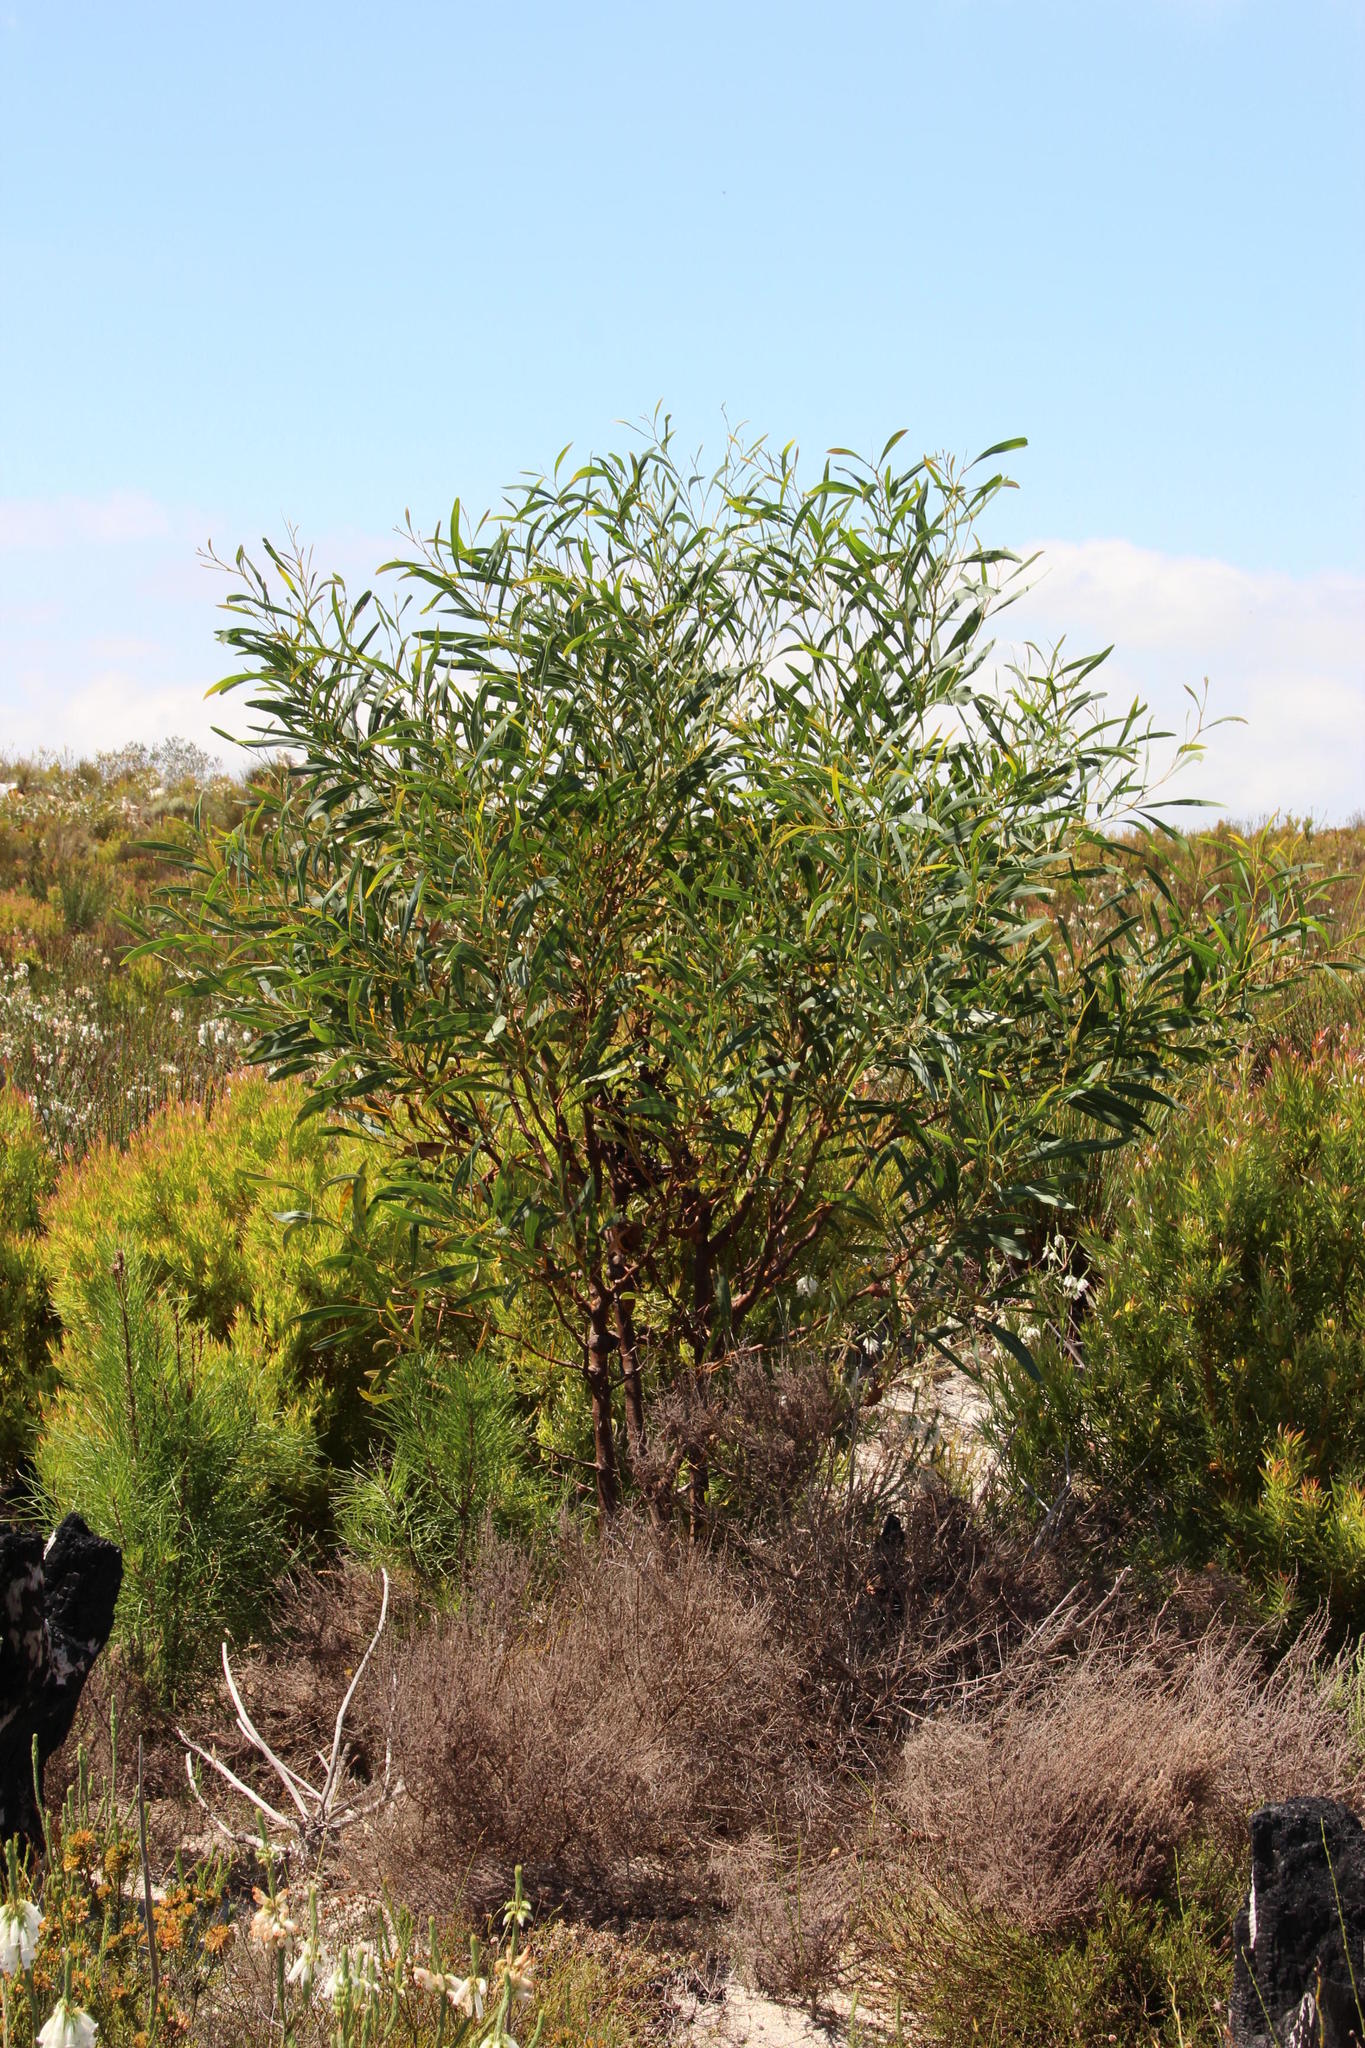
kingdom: Plantae
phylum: Tracheophyta
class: Magnoliopsida
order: Fabales
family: Fabaceae
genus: Acacia
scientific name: Acacia saligna
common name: Orange wattle
